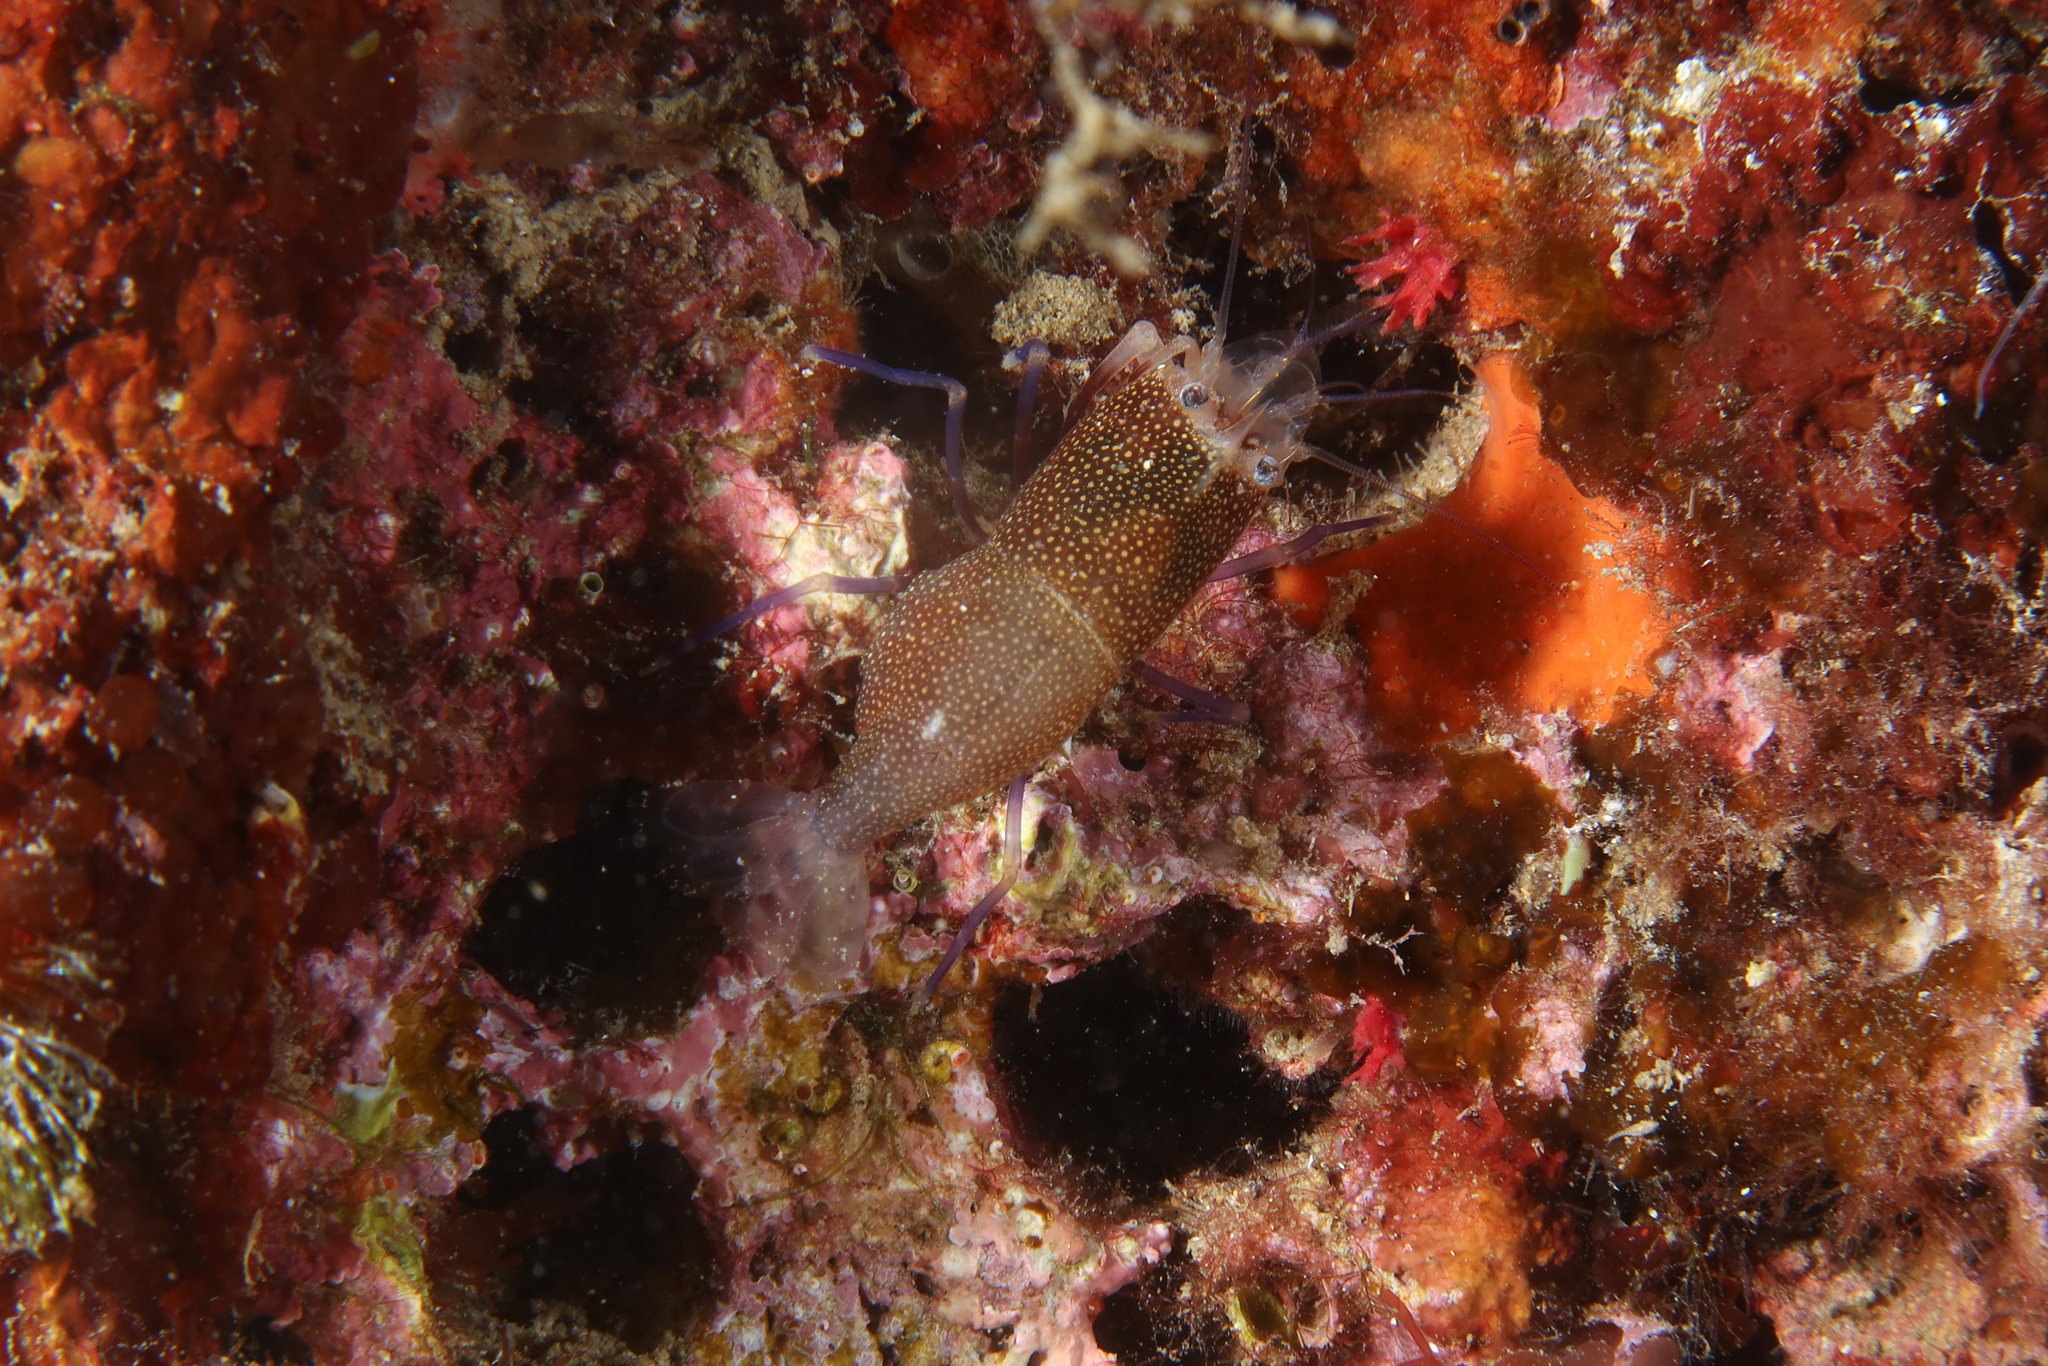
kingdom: Animalia
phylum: Arthropoda
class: Malacostraca
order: Decapoda
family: Palaemonidae
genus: Gnathophyllum
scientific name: Gnathophyllum elegans
